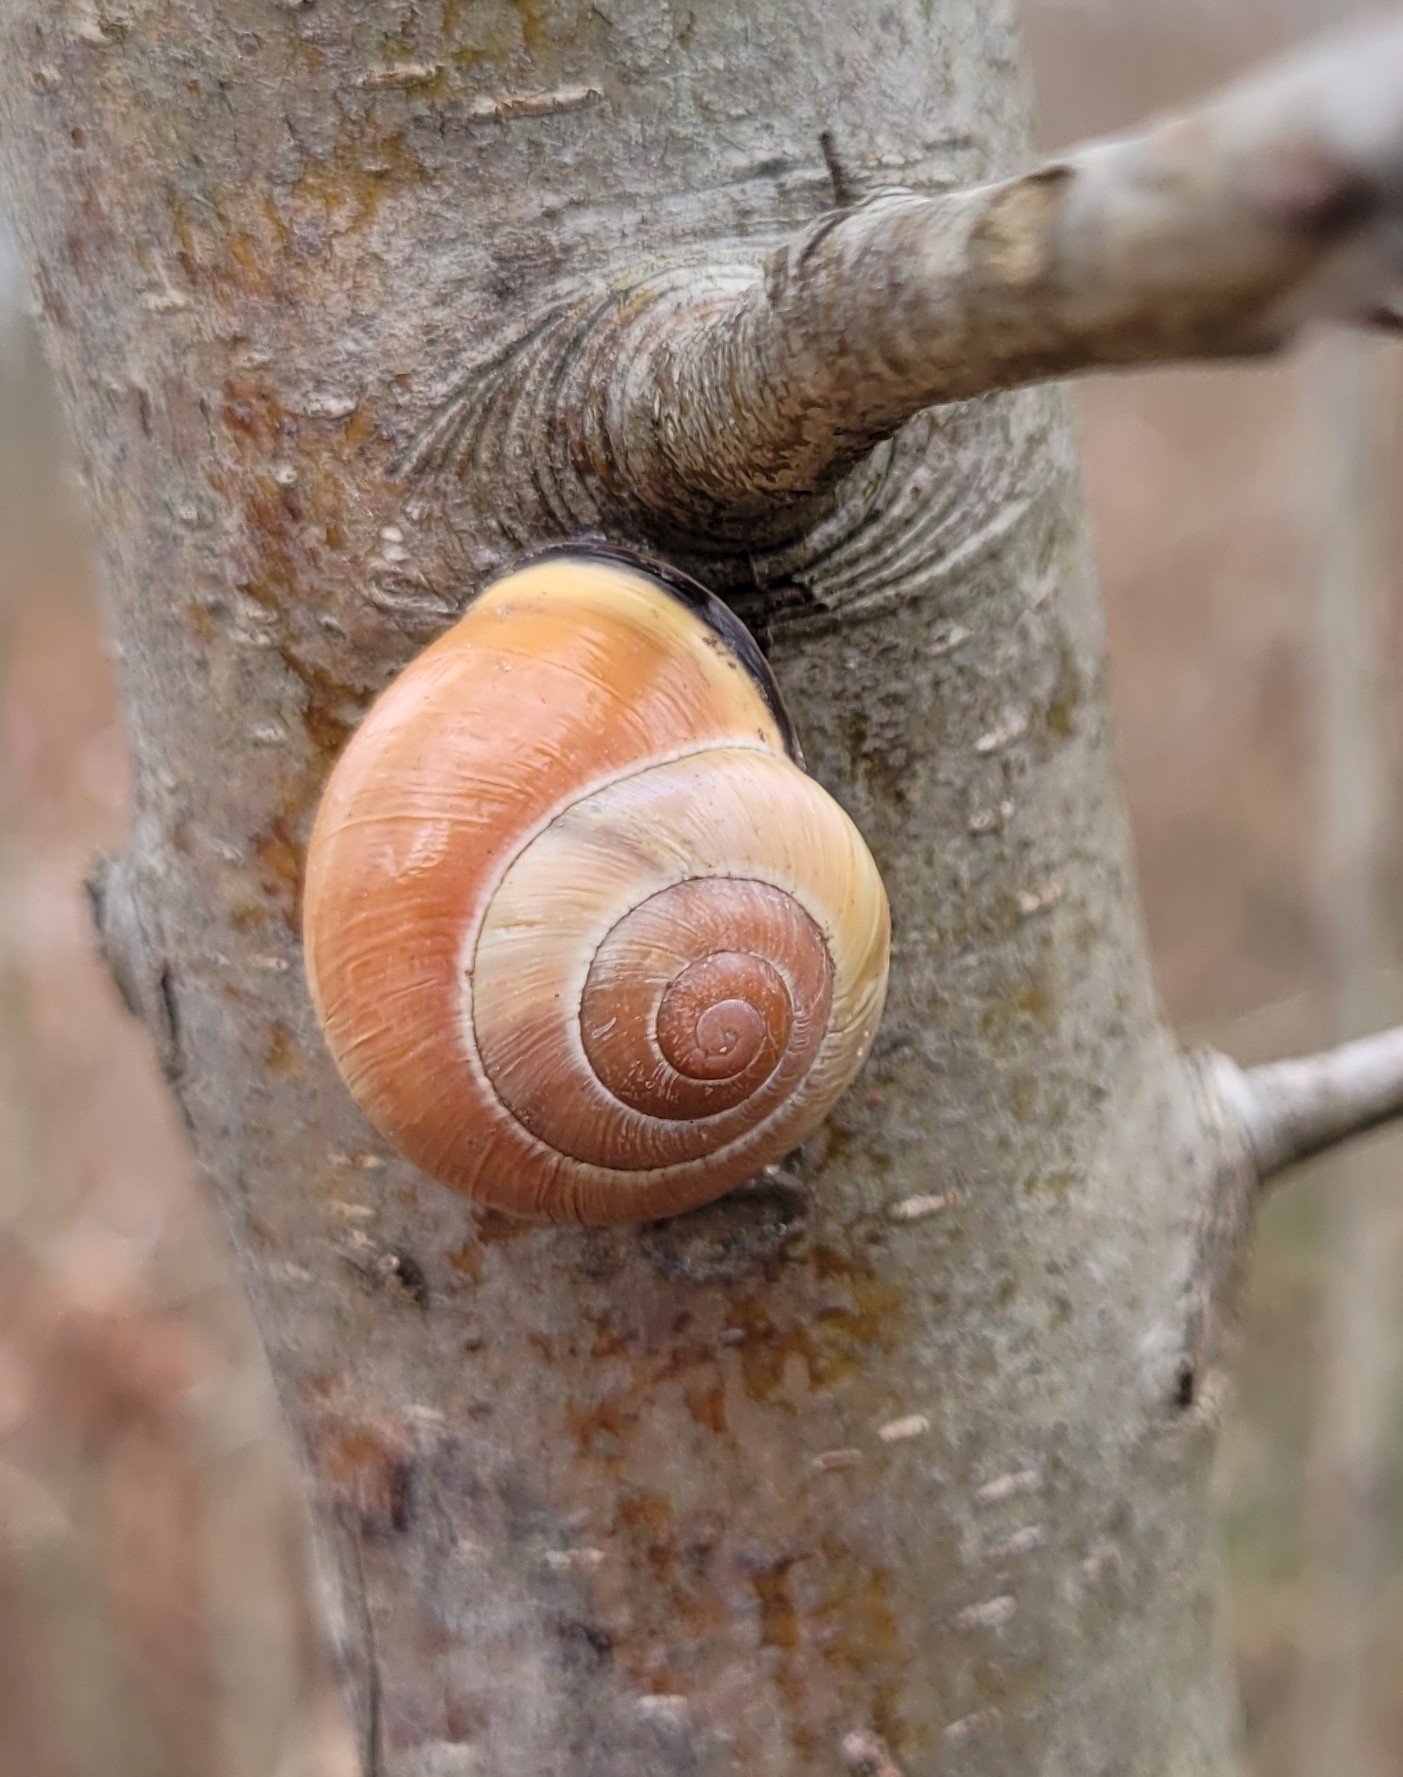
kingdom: Animalia
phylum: Mollusca
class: Gastropoda
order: Stylommatophora
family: Helicidae
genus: Cepaea
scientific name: Cepaea nemoralis
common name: Grovesnail
